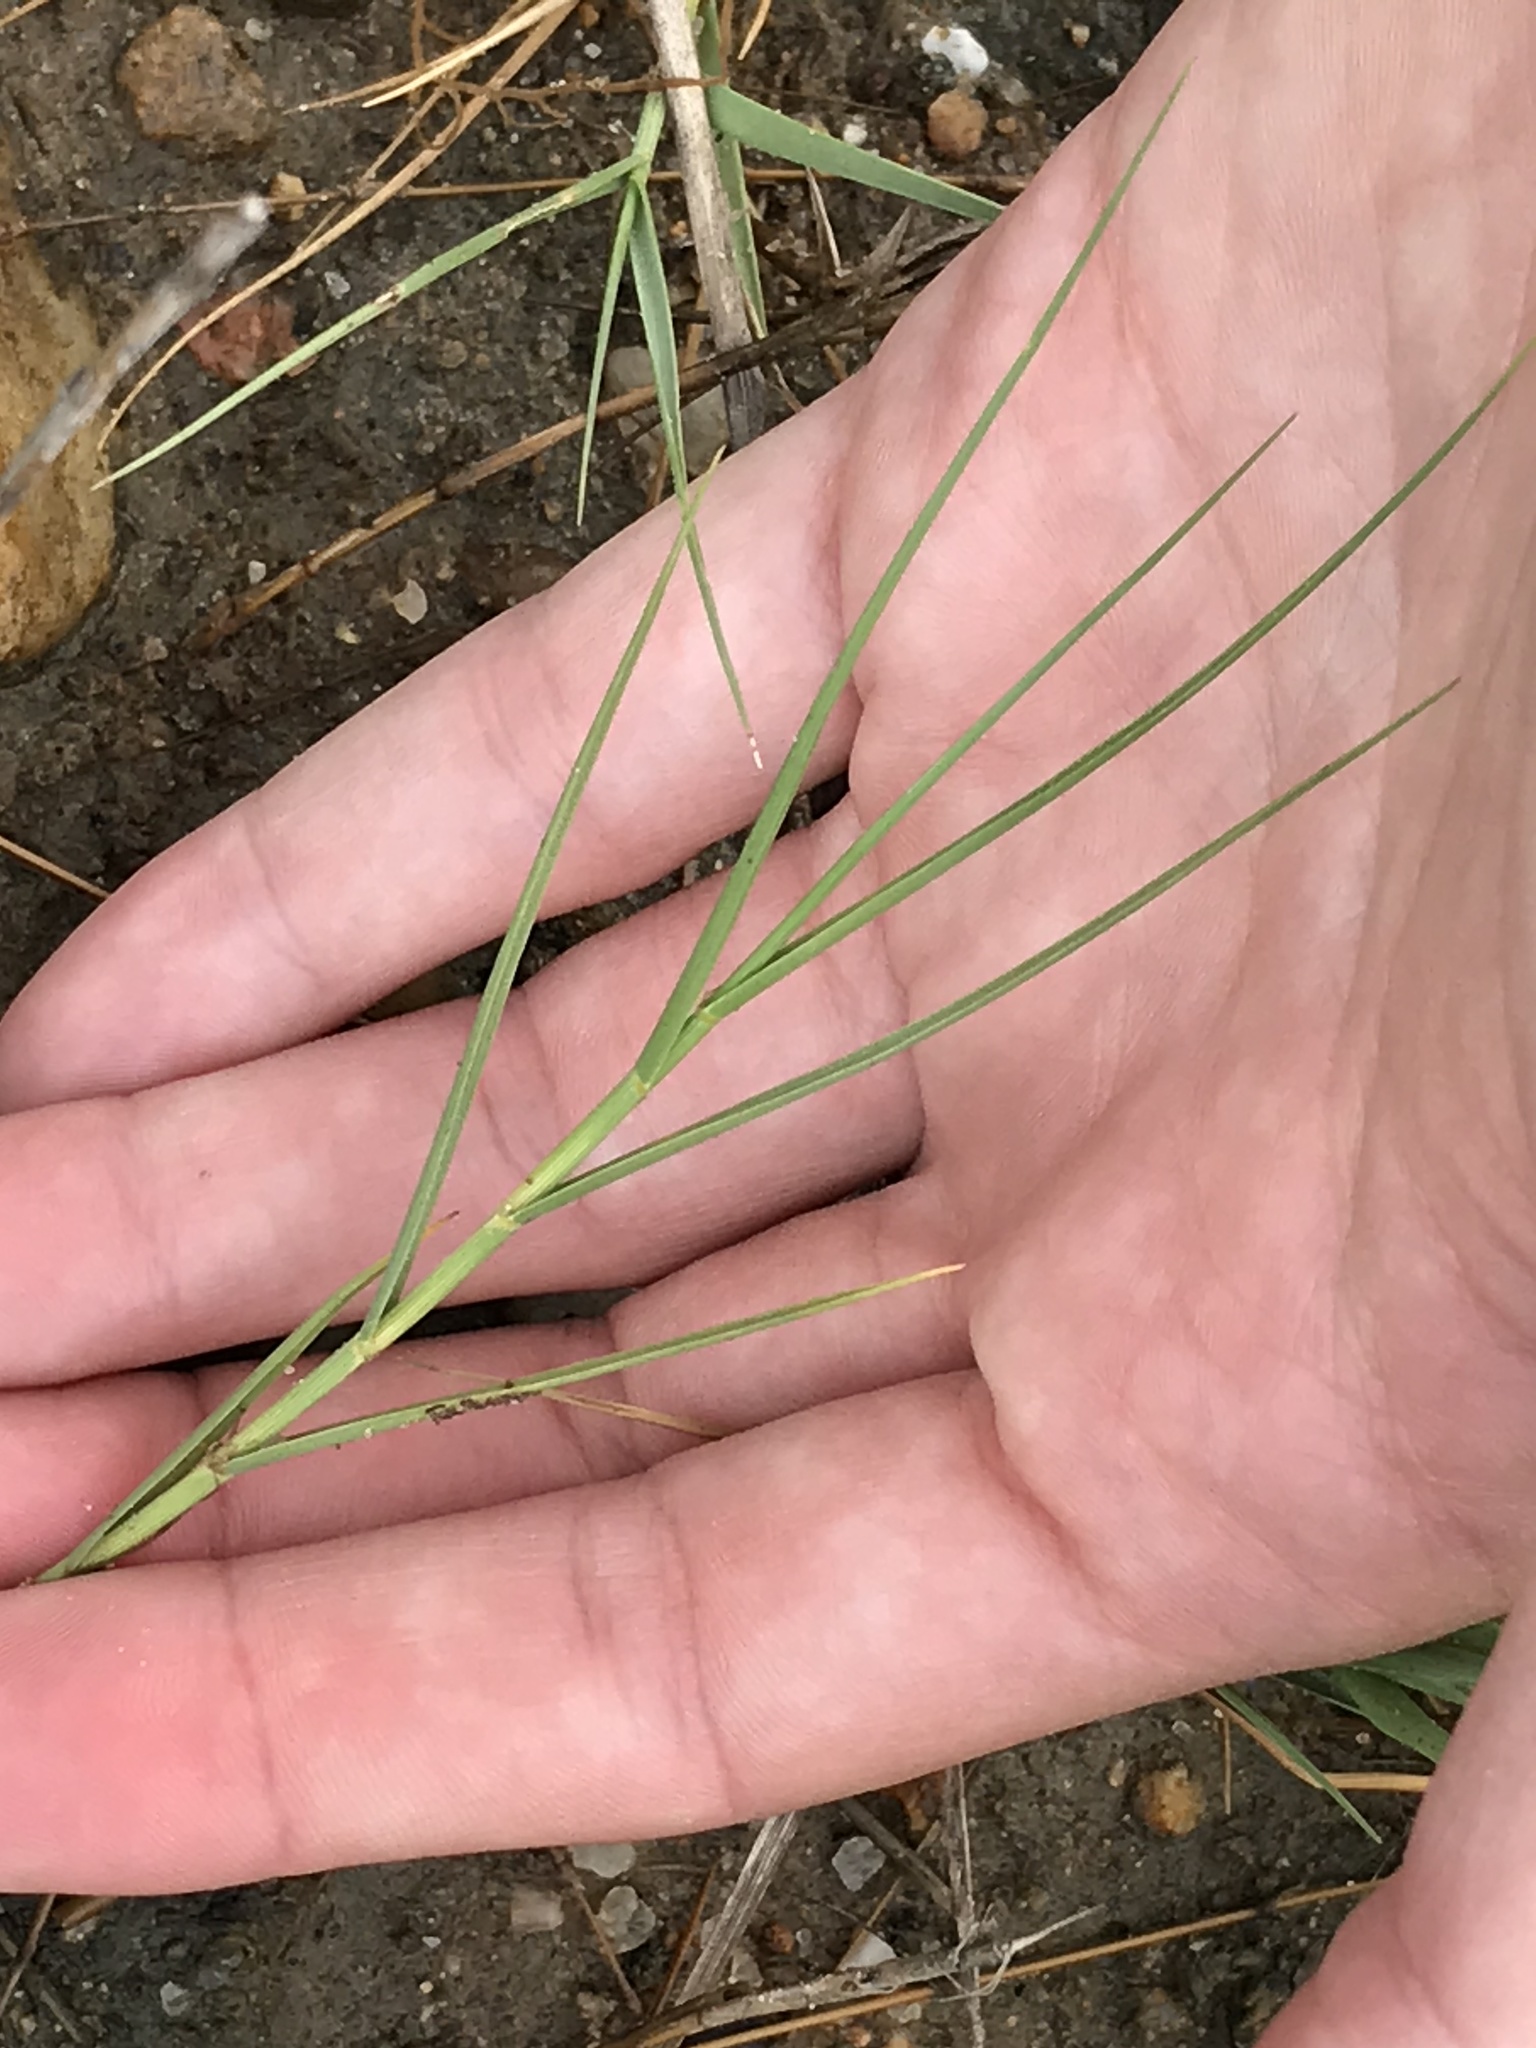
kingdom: Plantae
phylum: Tracheophyta
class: Liliopsida
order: Poales
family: Poaceae
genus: Distichlis
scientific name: Distichlis spicata
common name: Saltgrass
